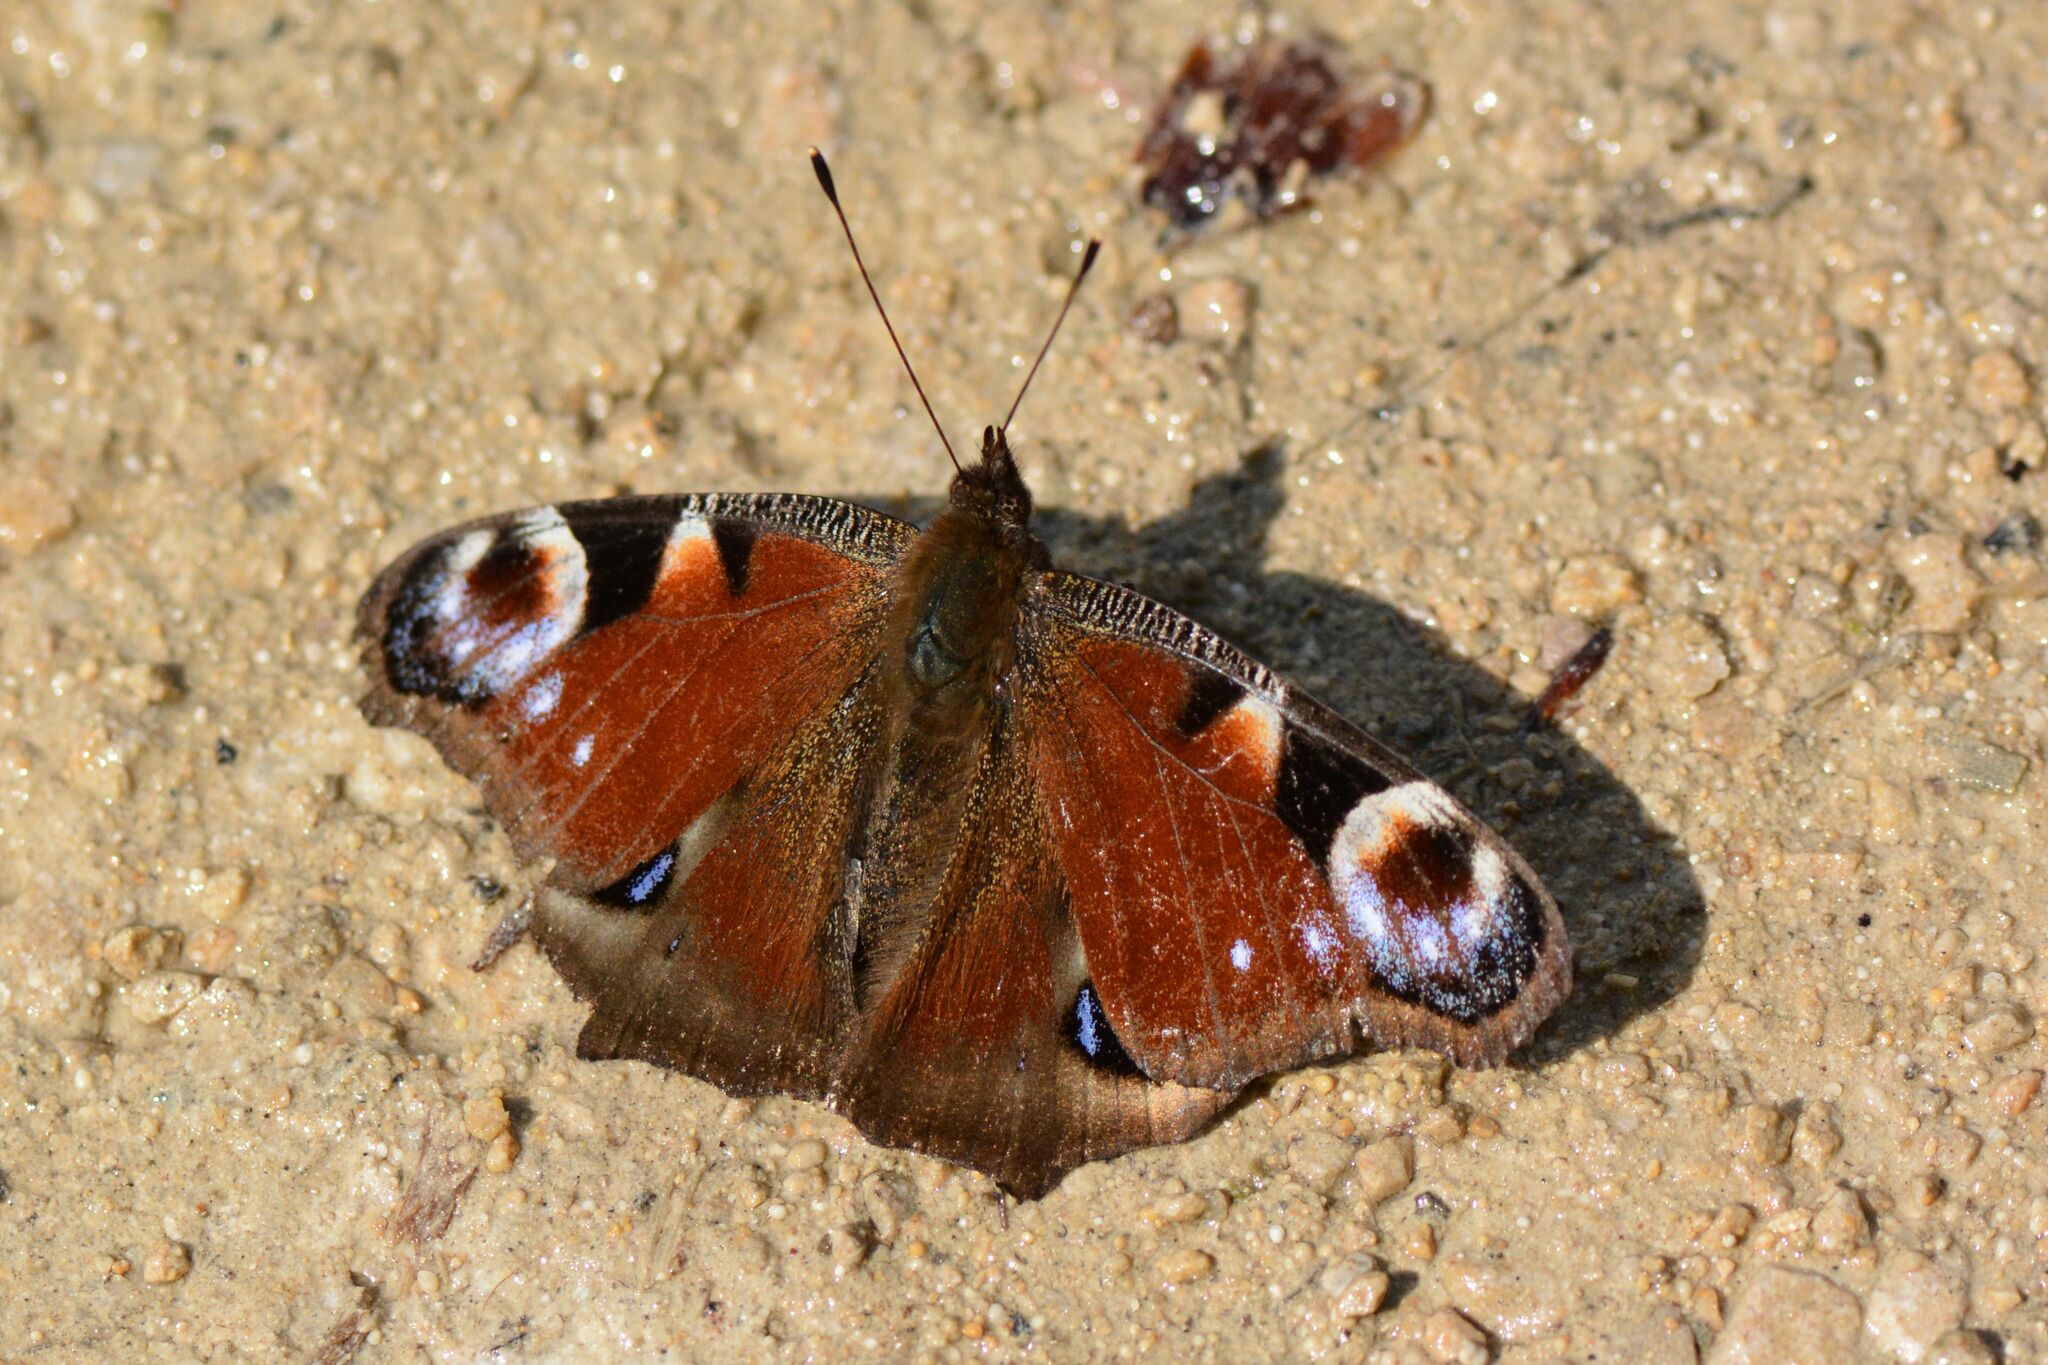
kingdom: Animalia
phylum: Arthropoda
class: Insecta
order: Lepidoptera
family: Nymphalidae
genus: Aglais
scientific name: Aglais io
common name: Peacock
